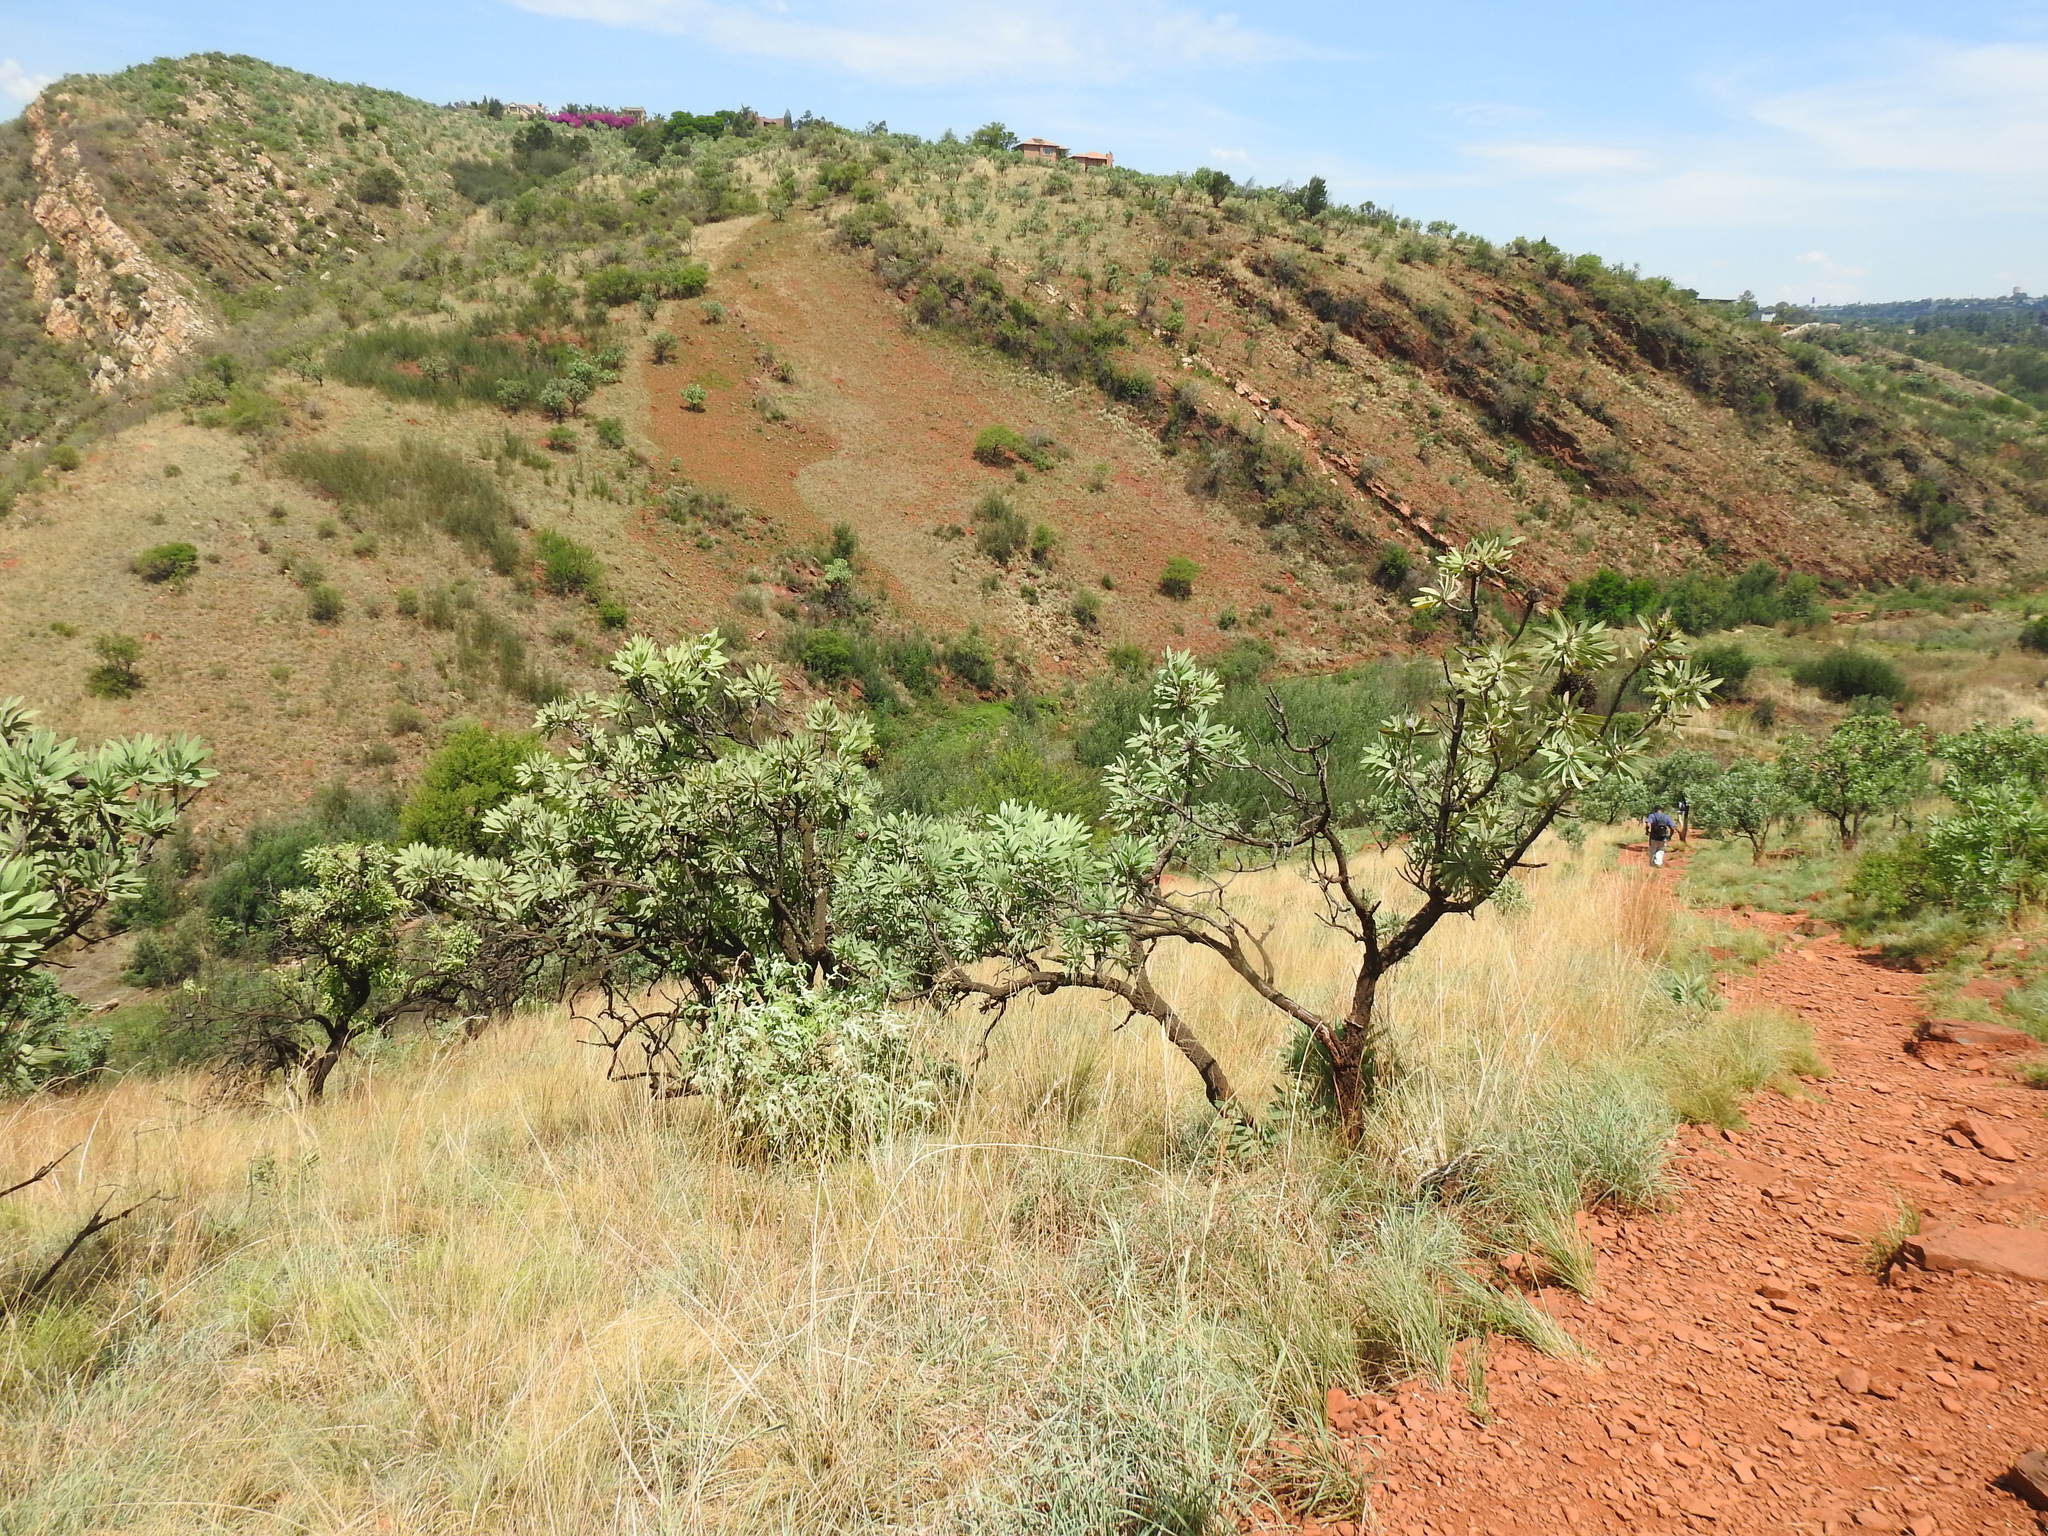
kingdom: Plantae
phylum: Tracheophyta
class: Magnoliopsida
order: Proteales
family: Proteaceae
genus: Protea
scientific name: Protea caffra
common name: Common sugarbush
